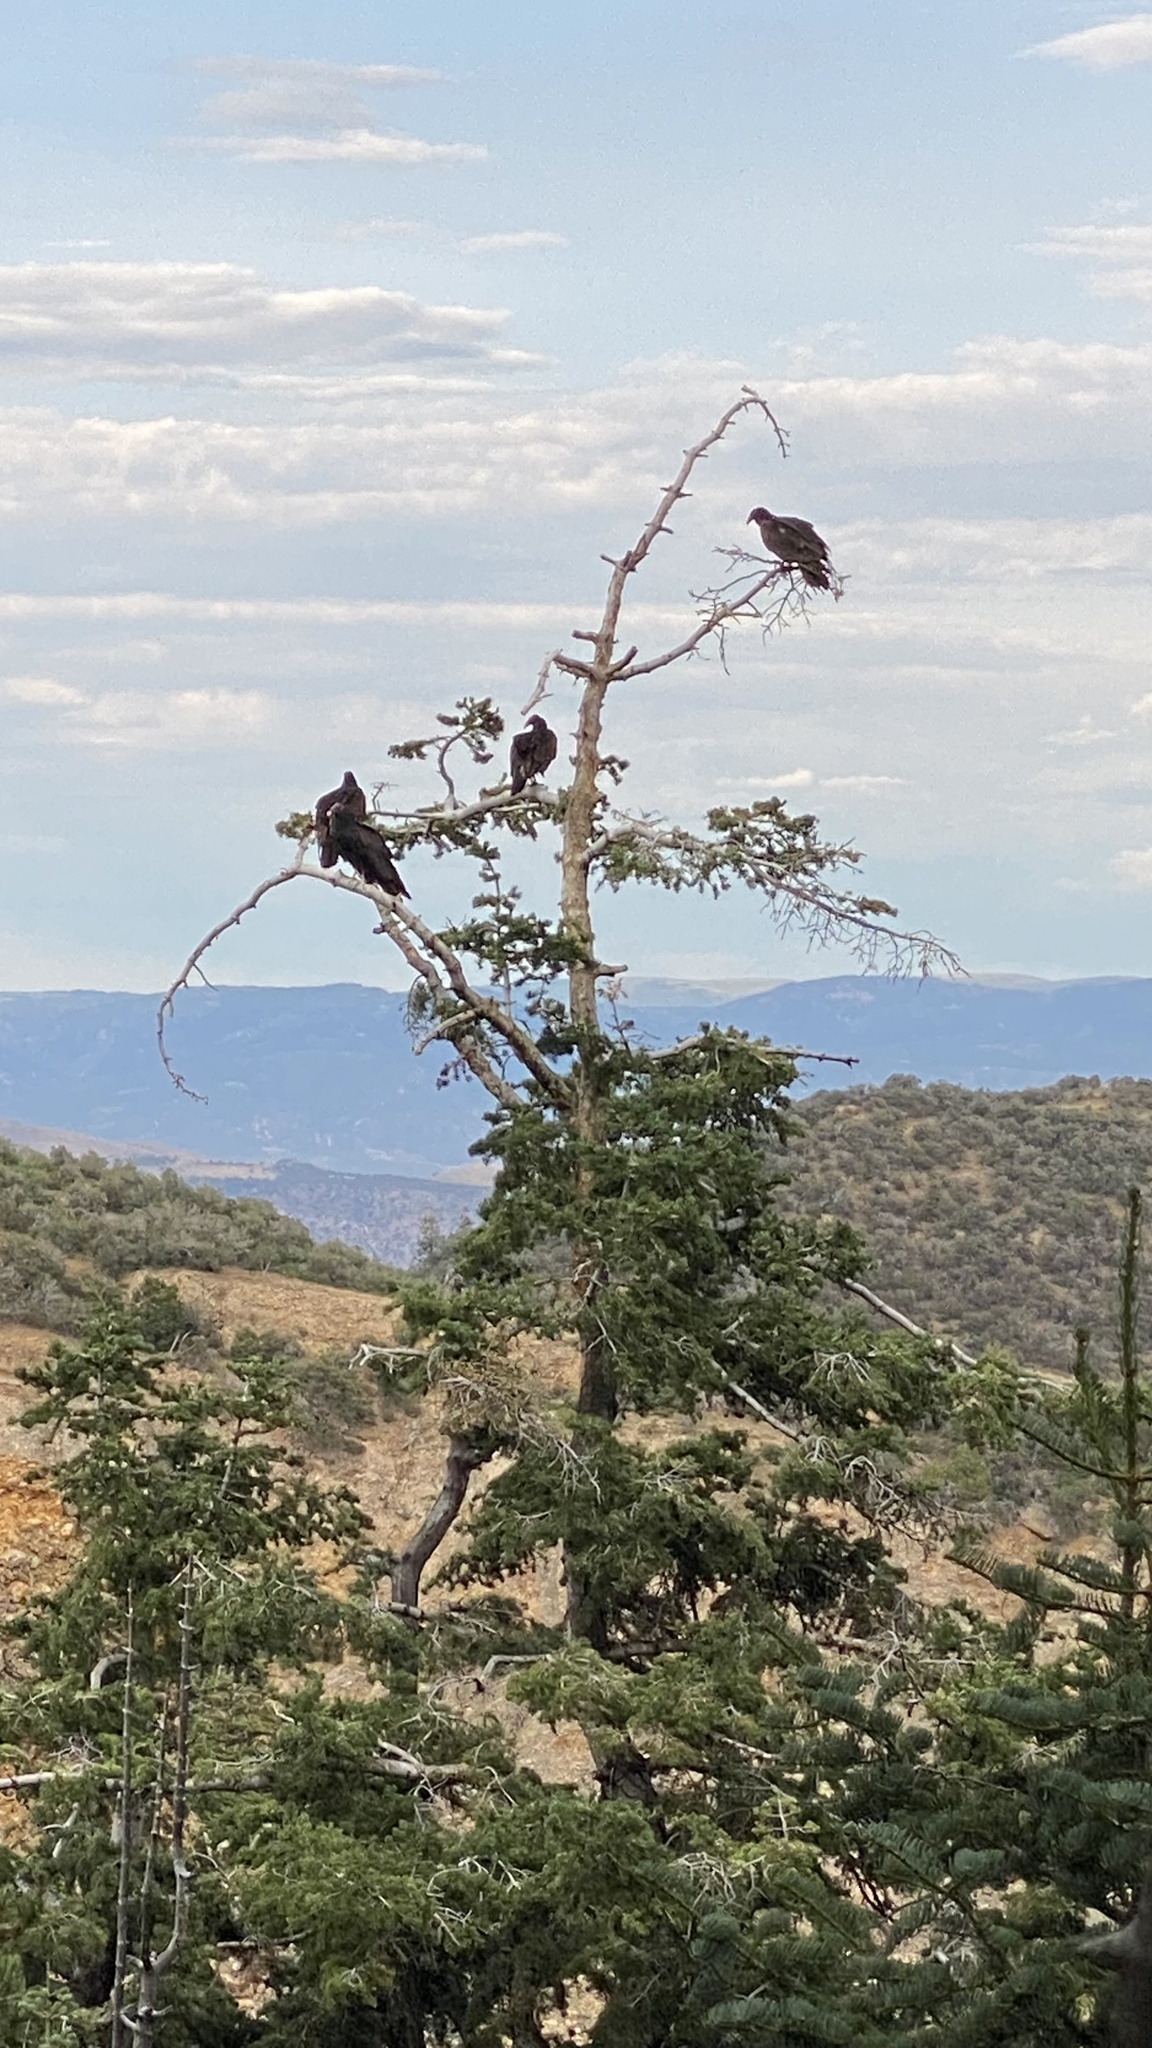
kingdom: Animalia
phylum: Chordata
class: Aves
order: Accipitriformes
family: Cathartidae
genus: Cathartes
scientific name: Cathartes aura
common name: Turkey vulture
